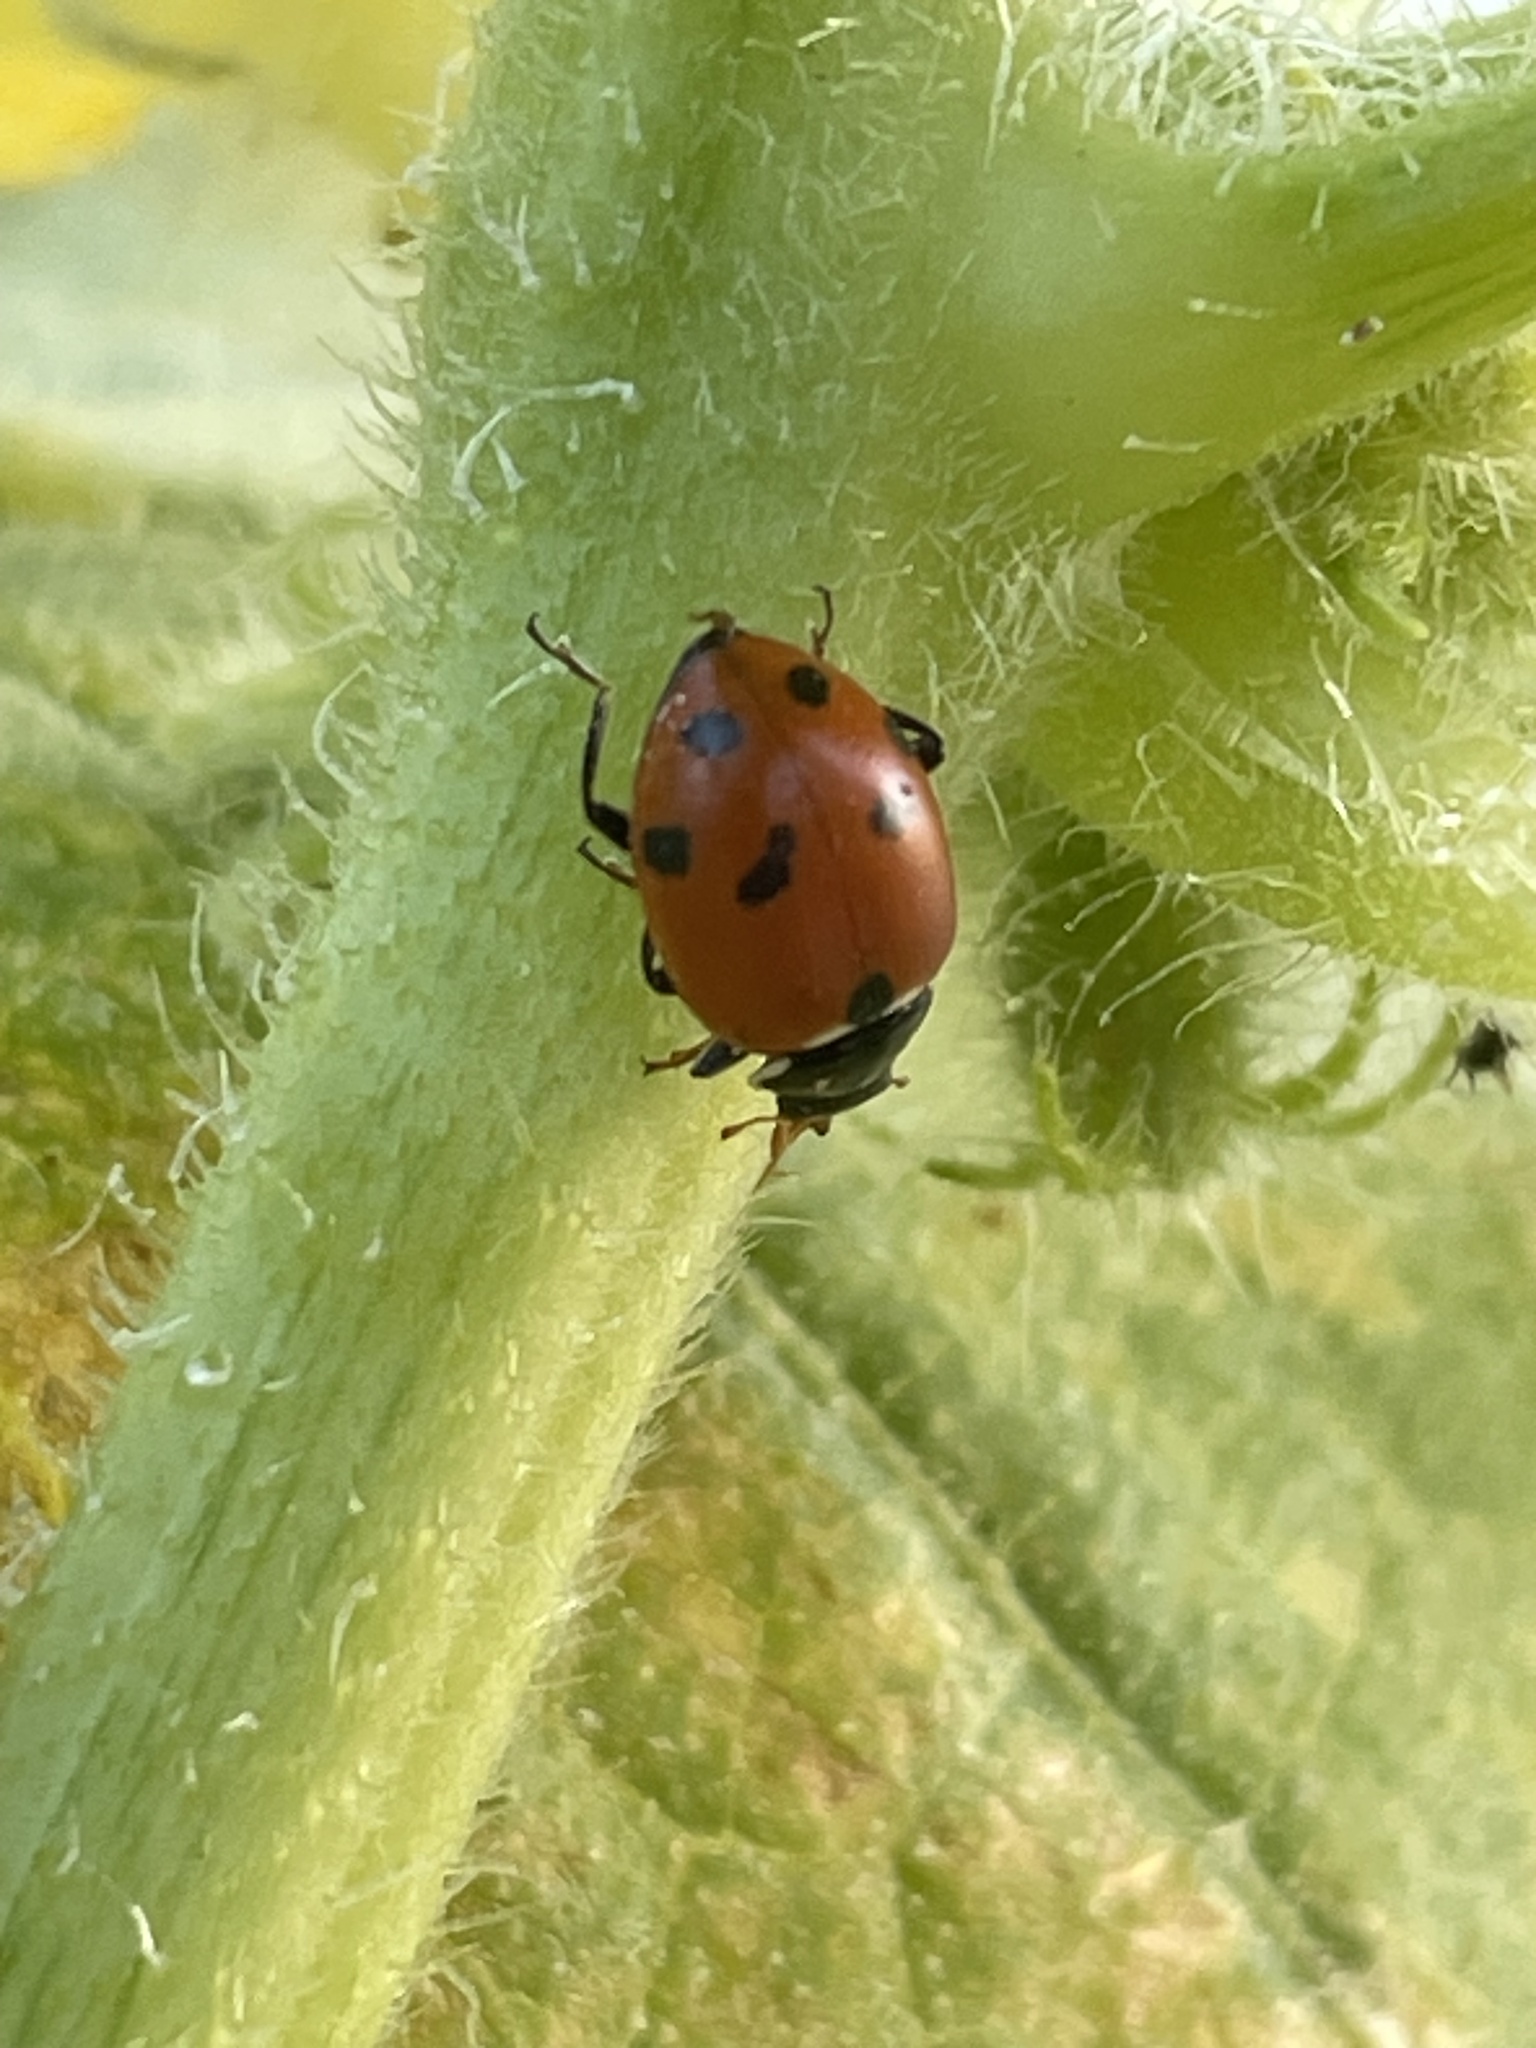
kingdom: Animalia
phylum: Arthropoda
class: Insecta
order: Coleoptera
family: Coccinellidae
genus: Hippodamia
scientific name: Hippodamia variegata
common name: Ladybird beetle
